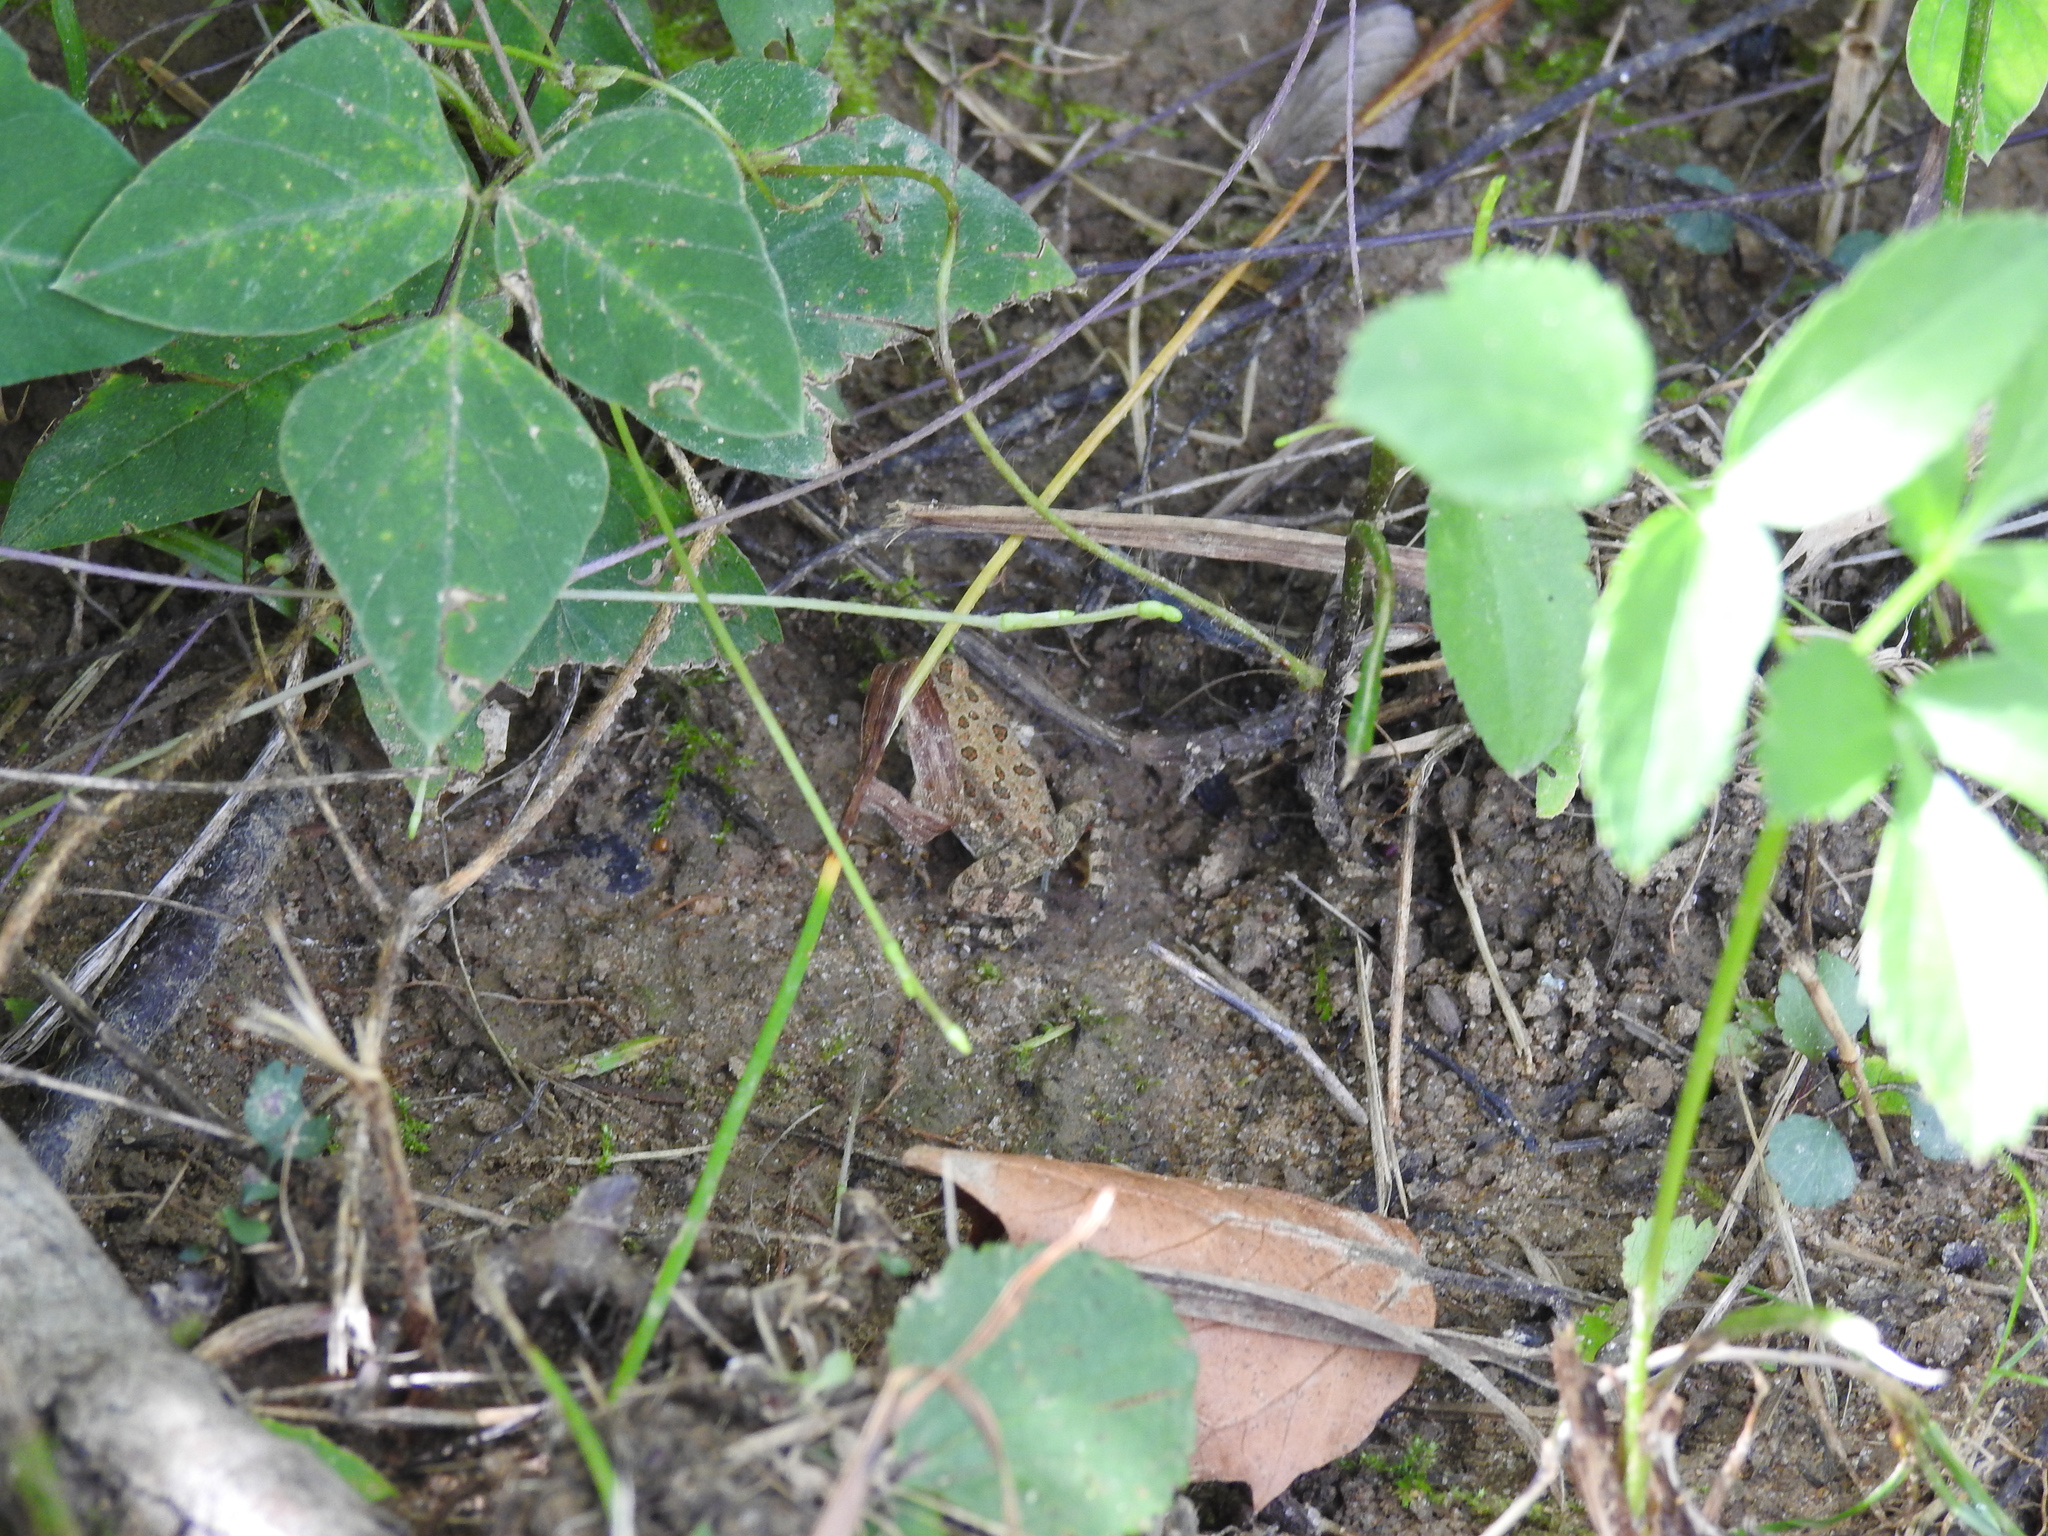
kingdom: Animalia
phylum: Chordata
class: Amphibia
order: Anura
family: Bufonidae
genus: Anaxyrus
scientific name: Anaxyrus fowleri
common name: Fowler's toad
